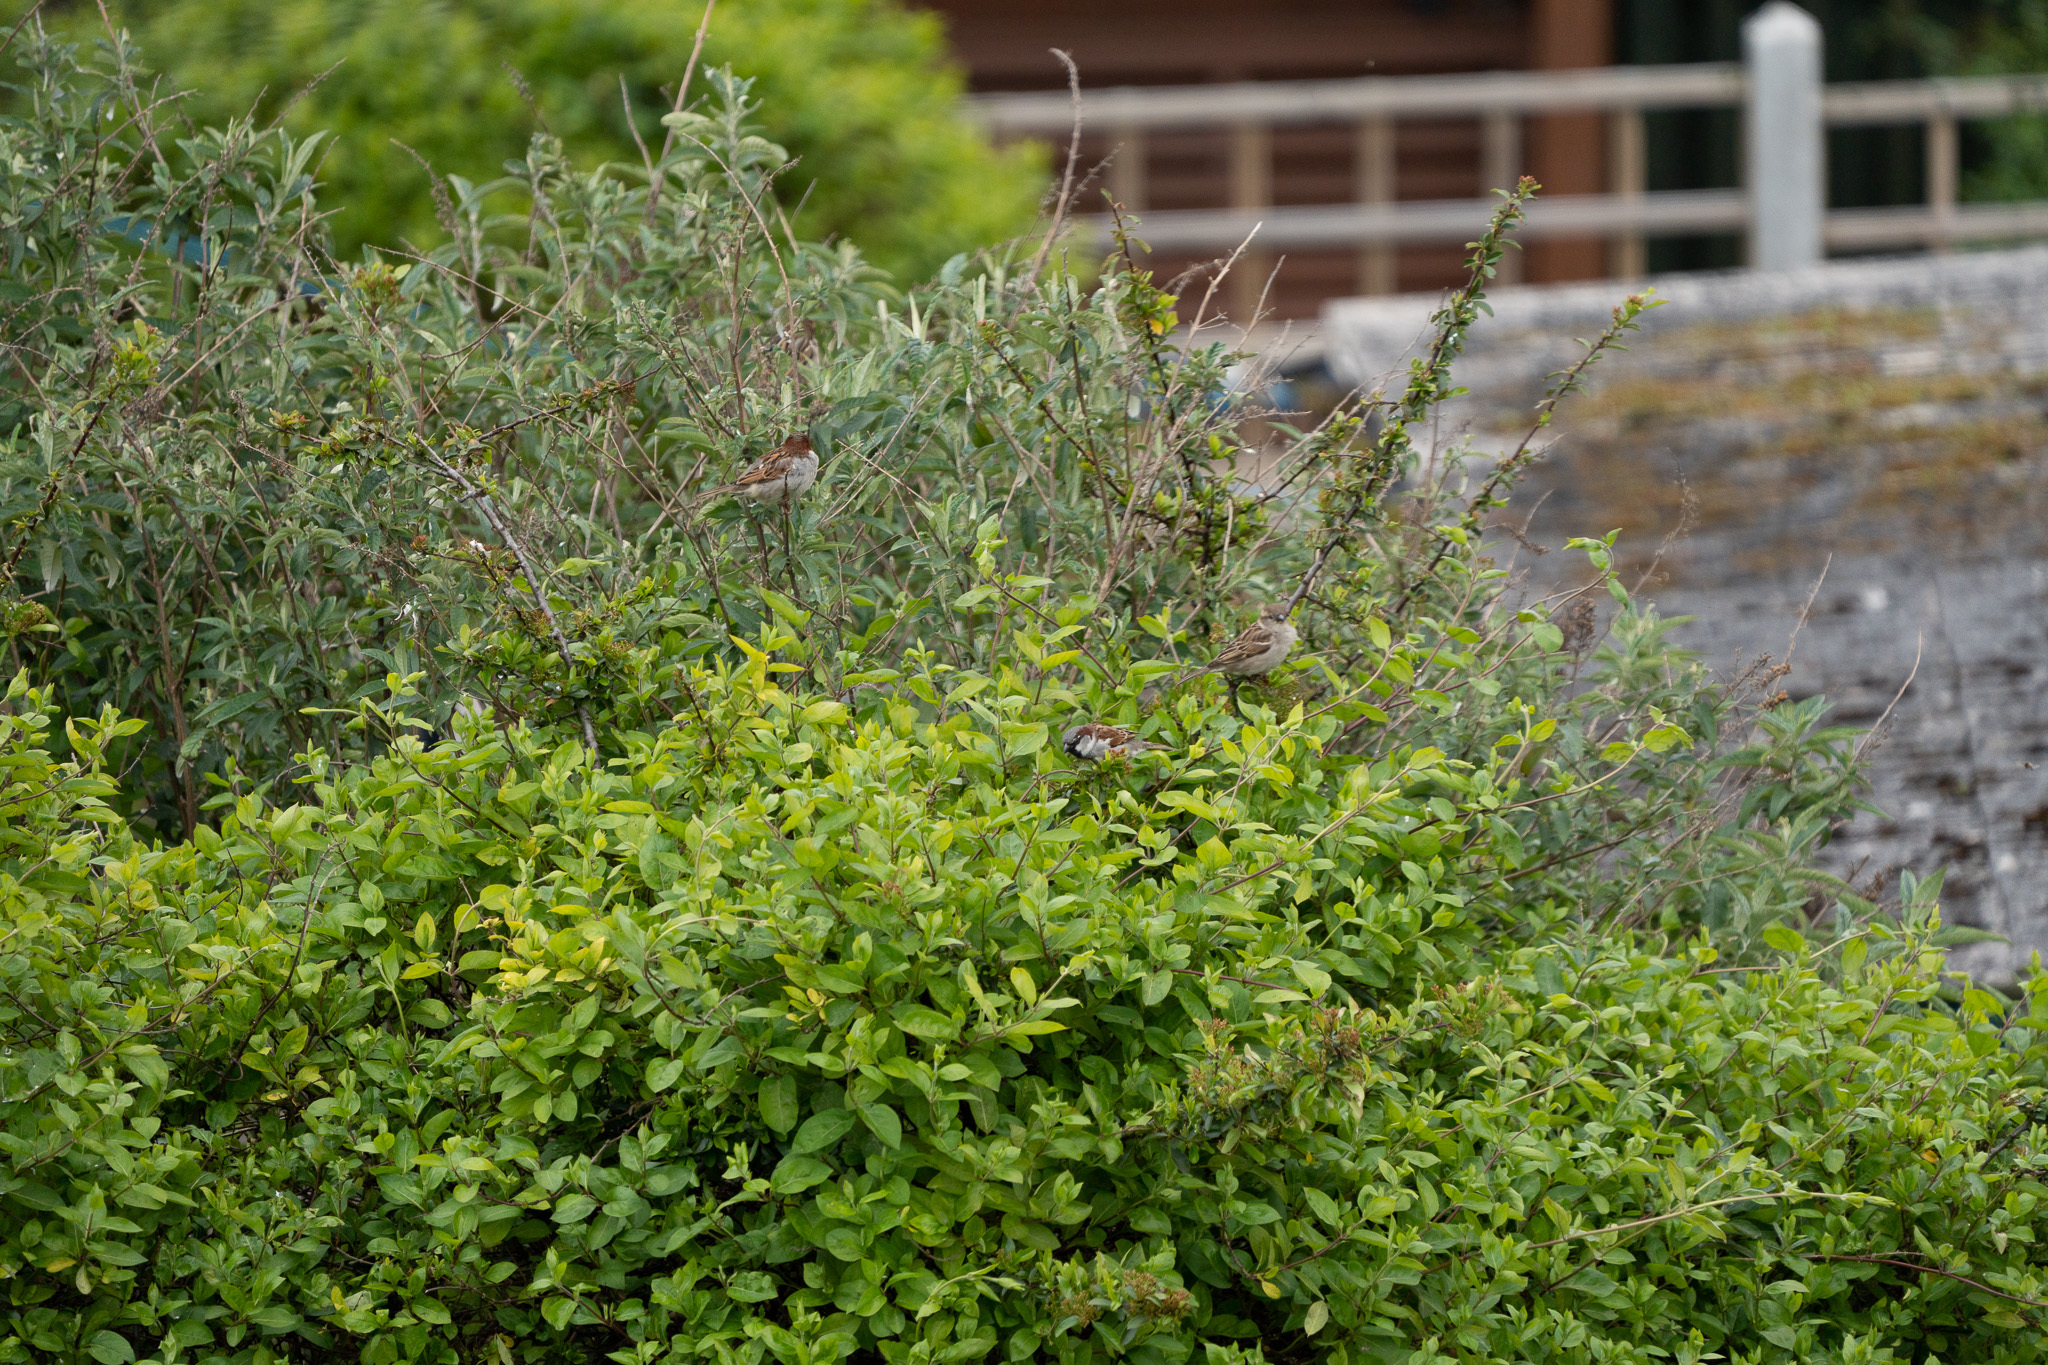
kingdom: Animalia
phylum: Chordata
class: Aves
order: Passeriformes
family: Passeridae
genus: Passer
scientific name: Passer domesticus
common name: House sparrow
